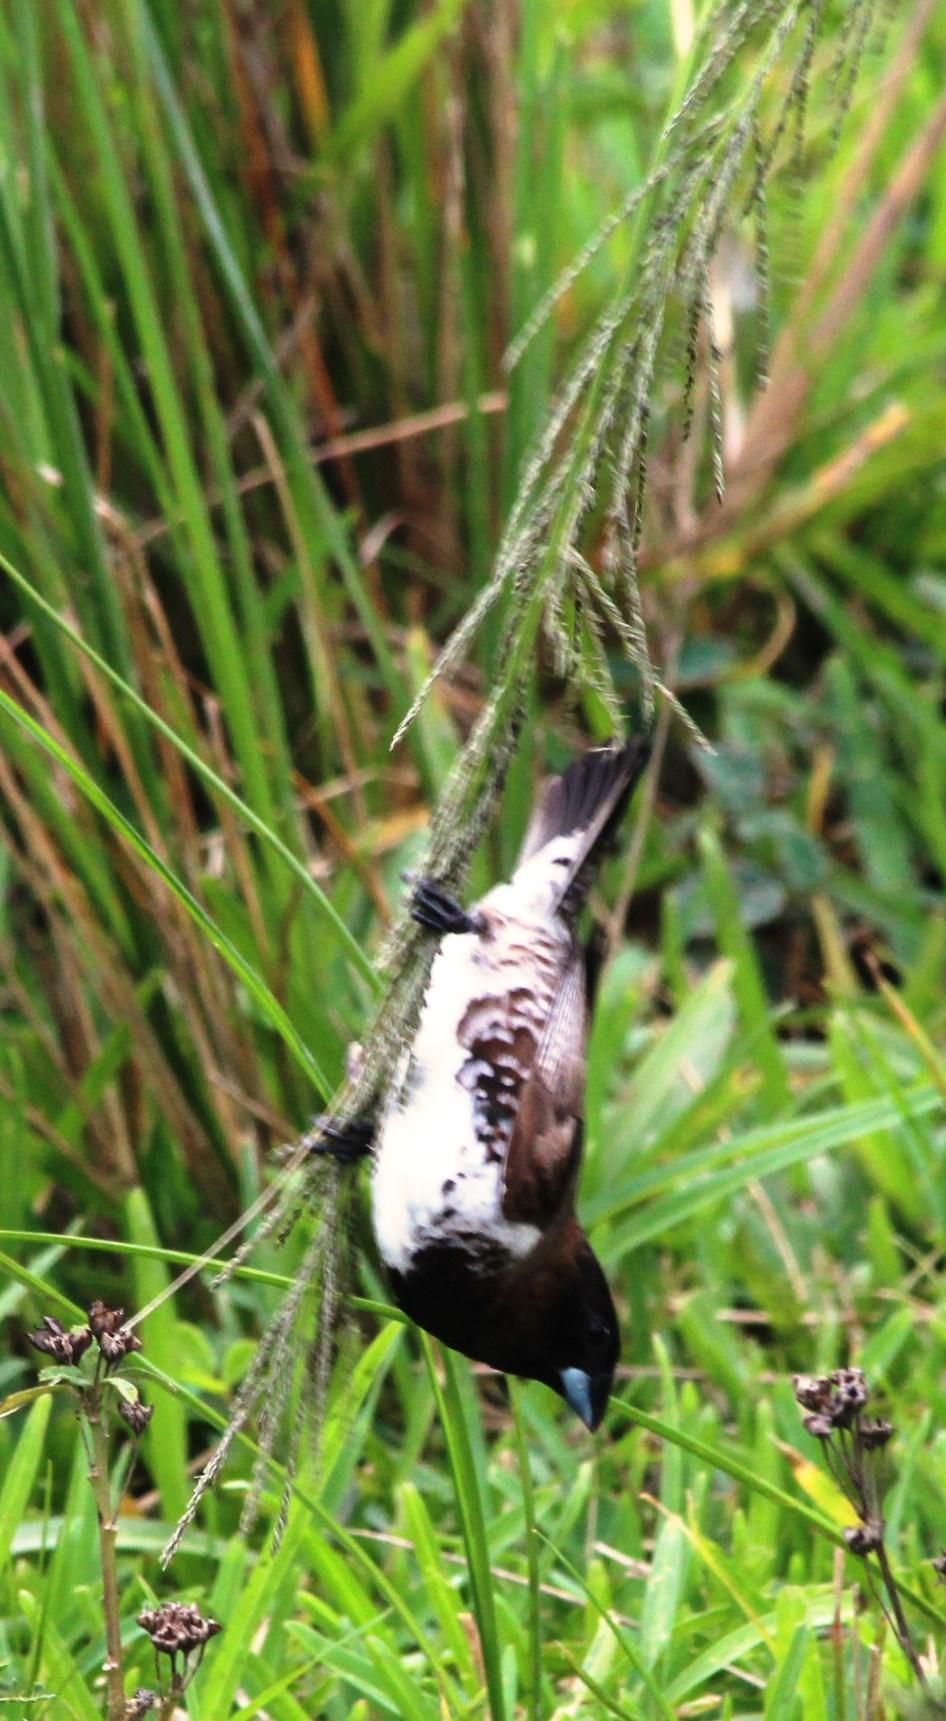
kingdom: Plantae
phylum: Tracheophyta
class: Liliopsida
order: Poales
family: Poaceae
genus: Sporobolus
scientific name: Sporobolus pyramidalis
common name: West indian dropseed
